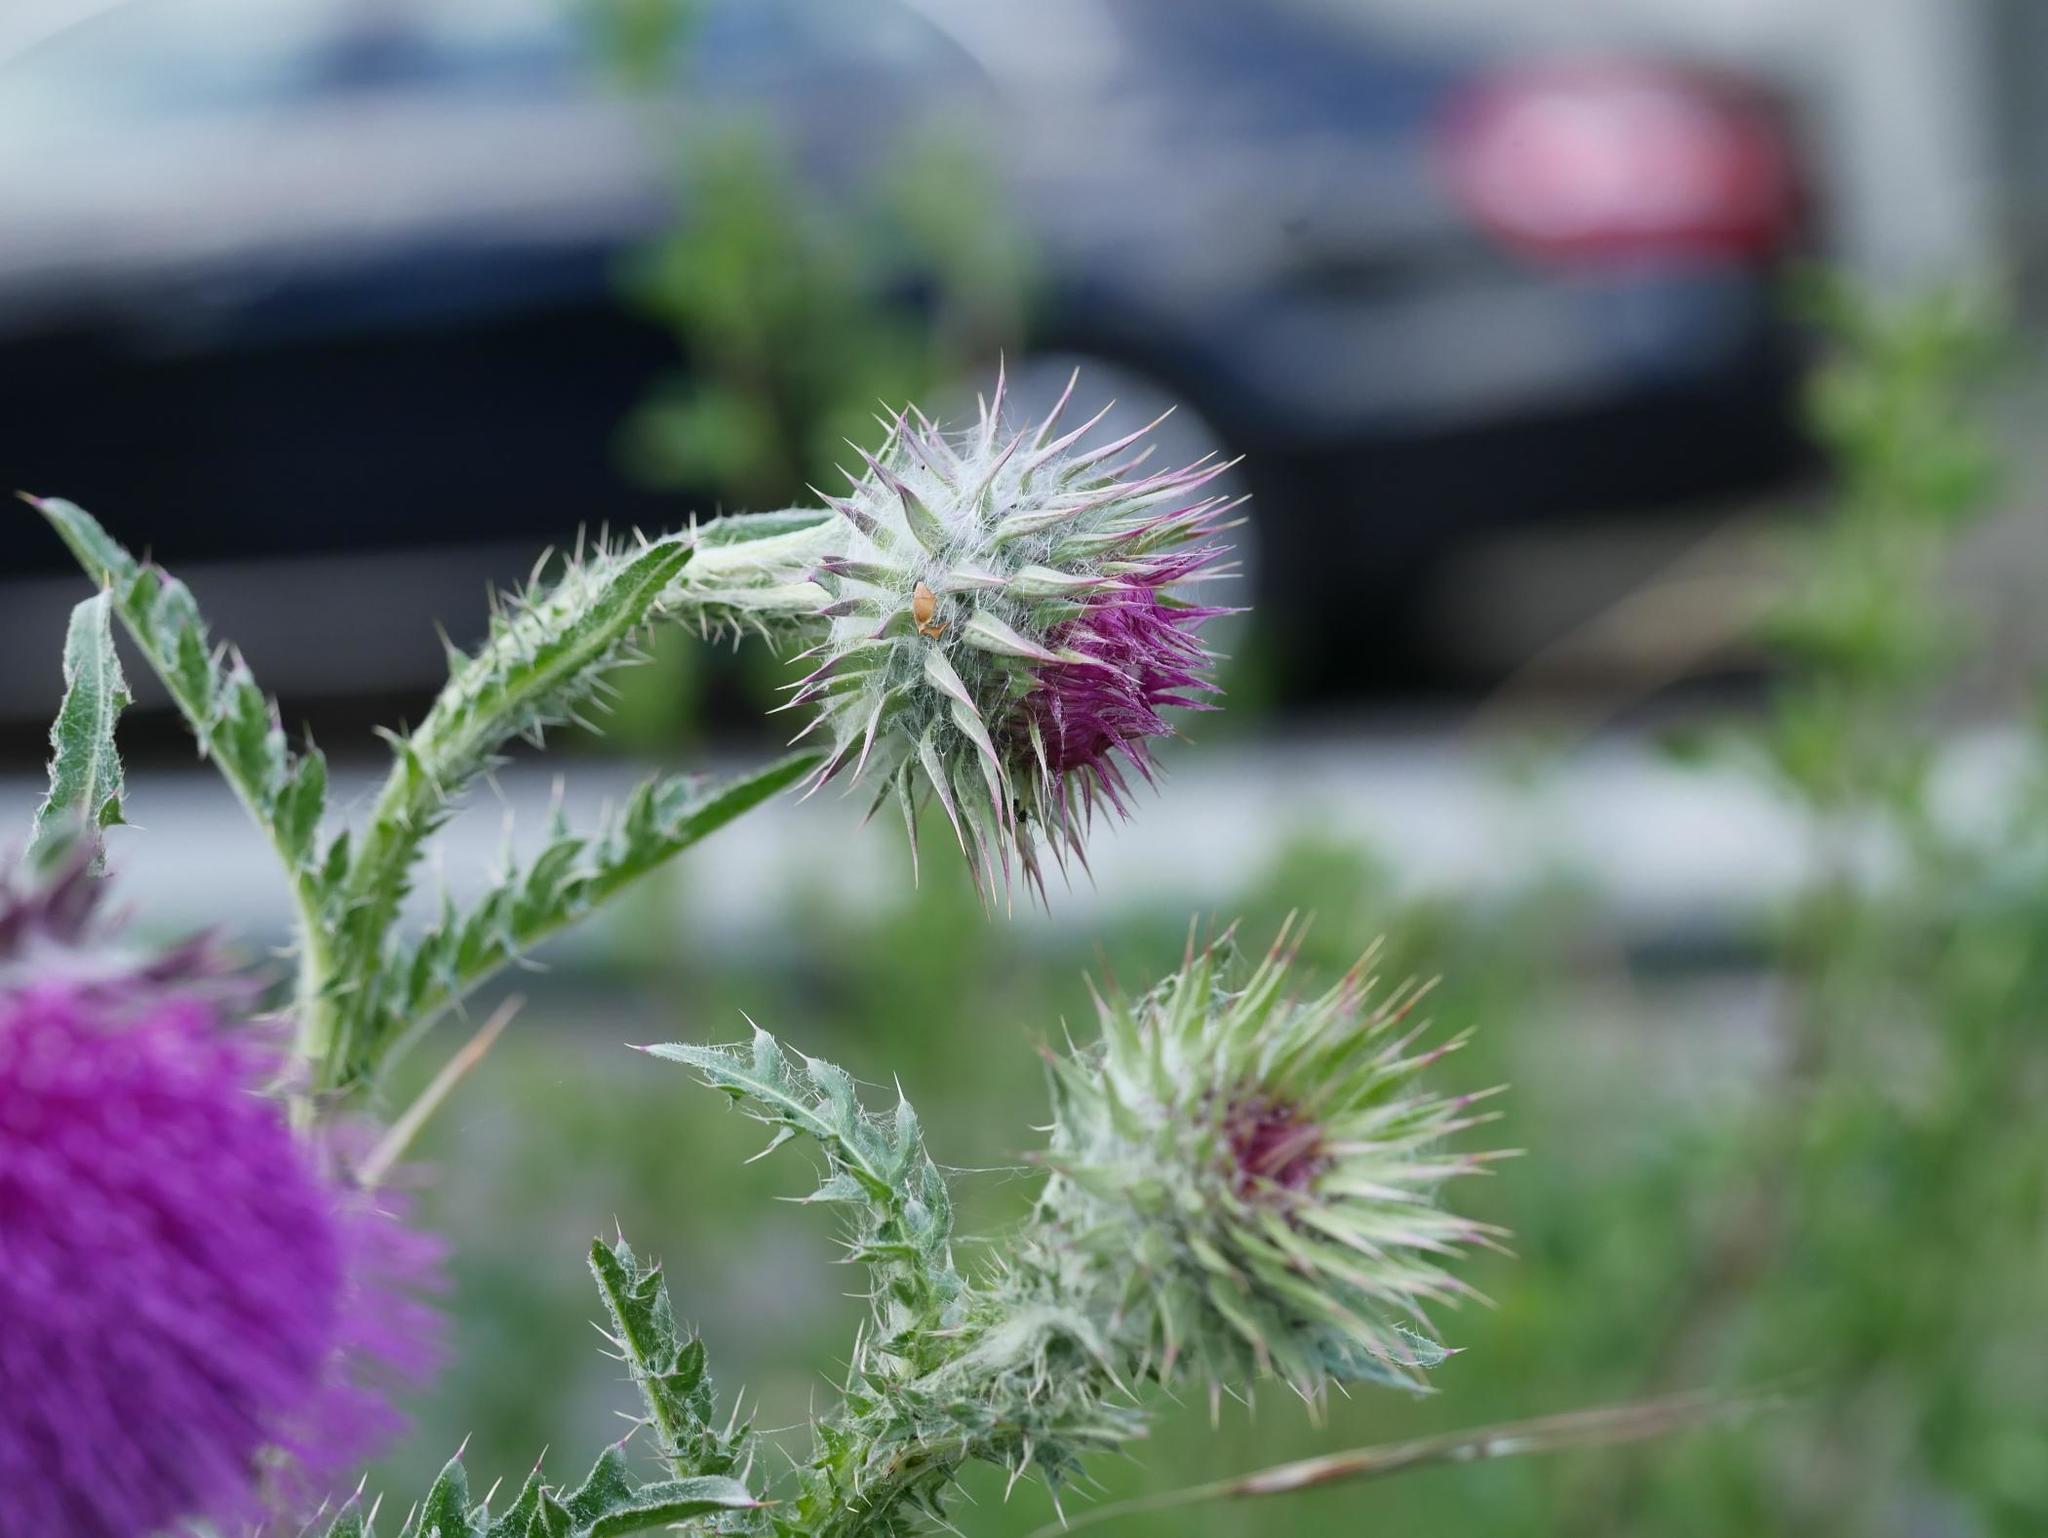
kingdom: Plantae
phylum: Tracheophyta
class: Magnoliopsida
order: Asterales
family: Asteraceae
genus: Carduus
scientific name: Carduus nutans
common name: Musk thistle
